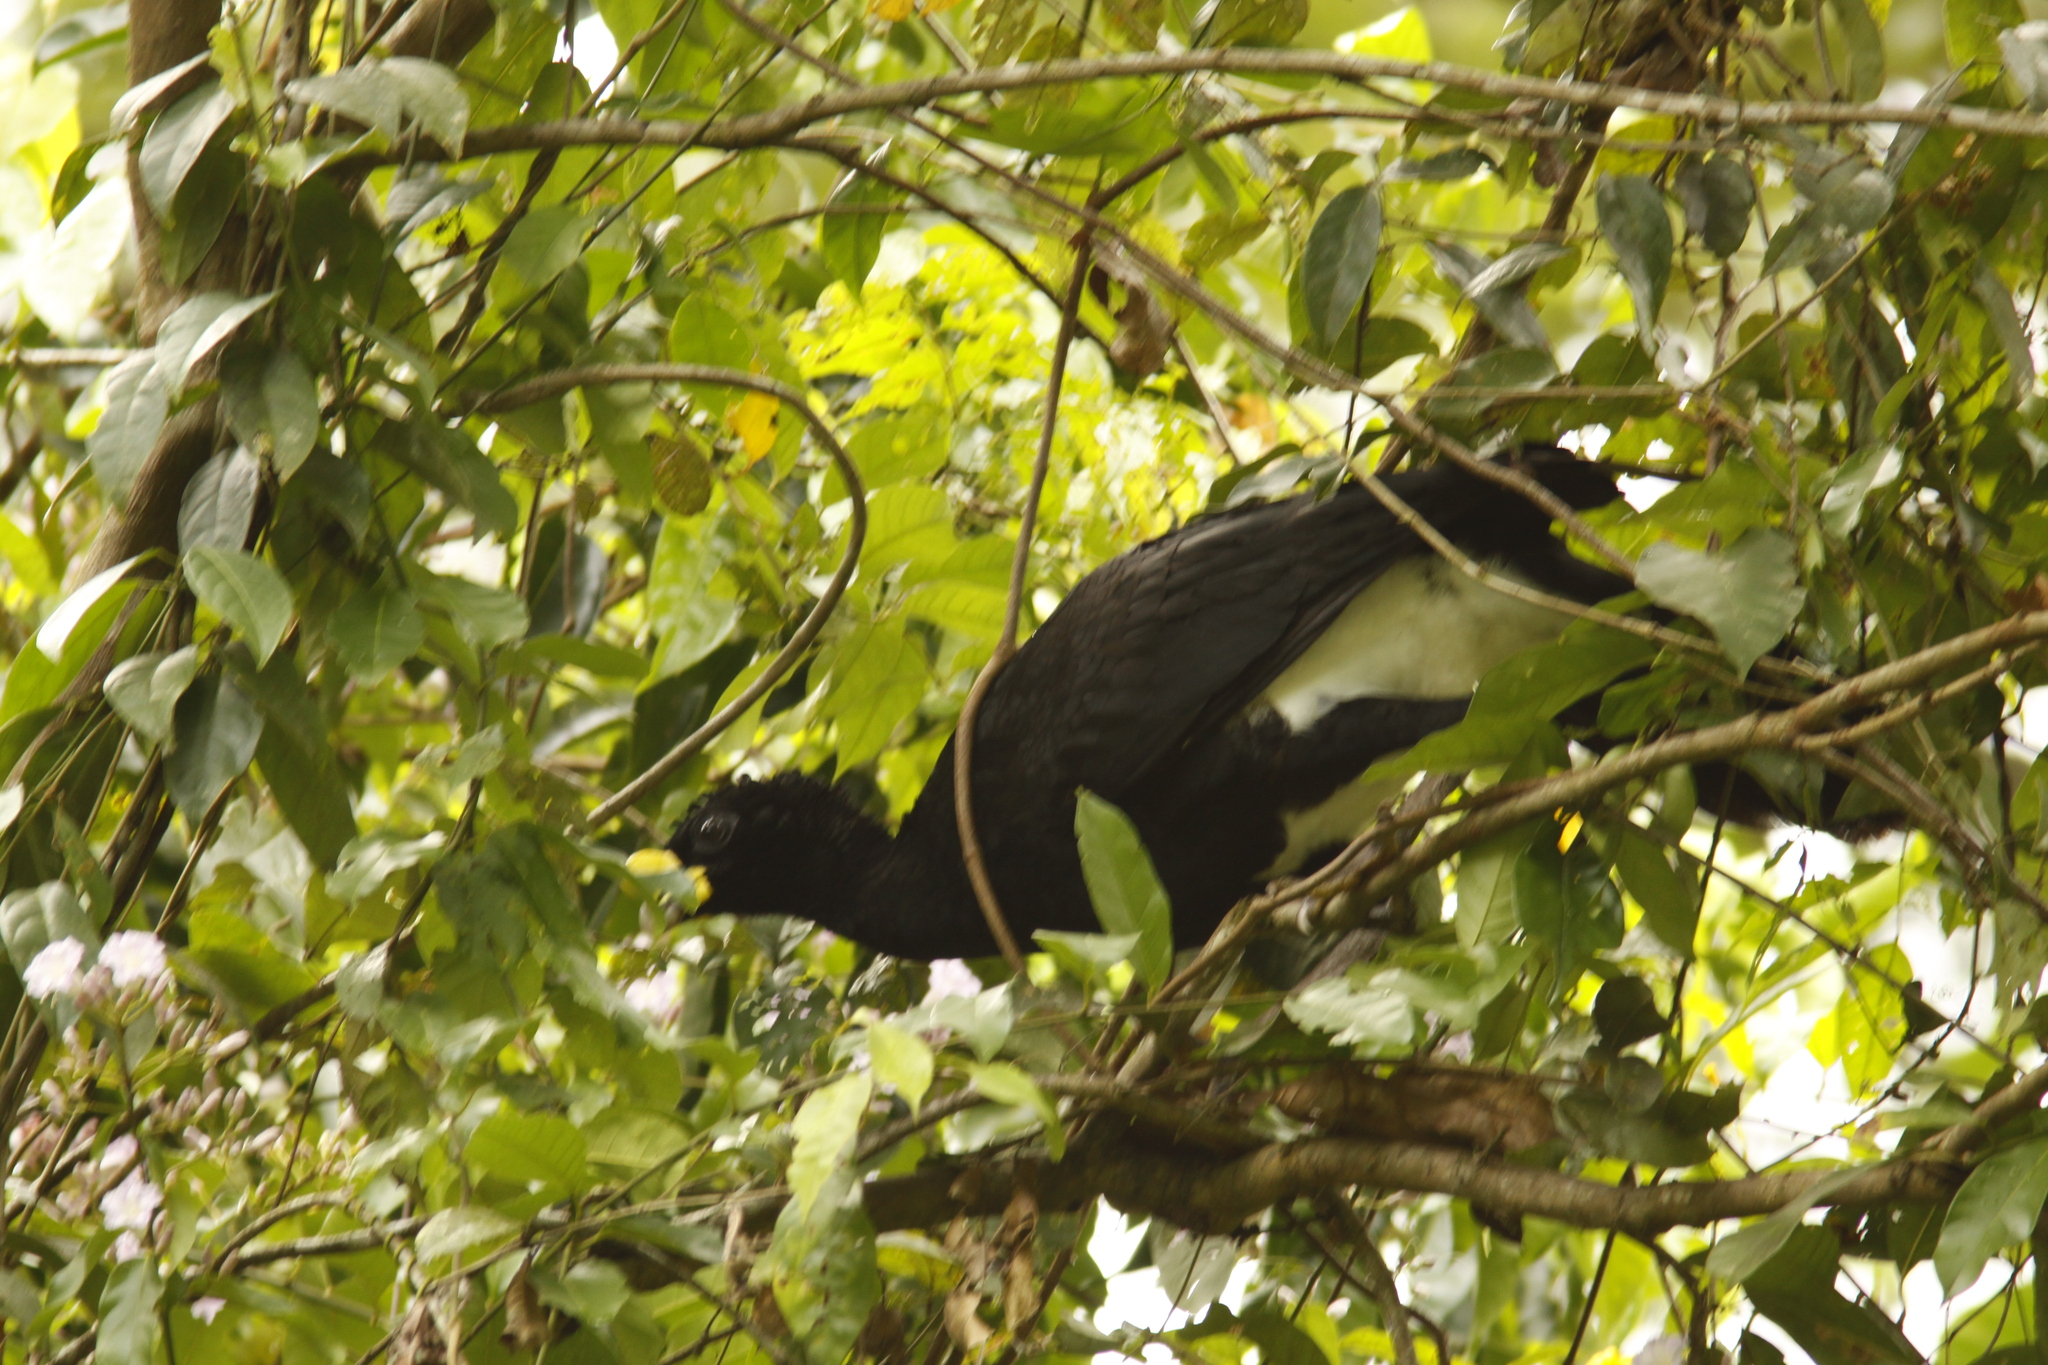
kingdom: Animalia
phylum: Chordata
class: Aves
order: Galliformes
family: Cracidae
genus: Crax
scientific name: Crax rubra
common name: Great curassow
